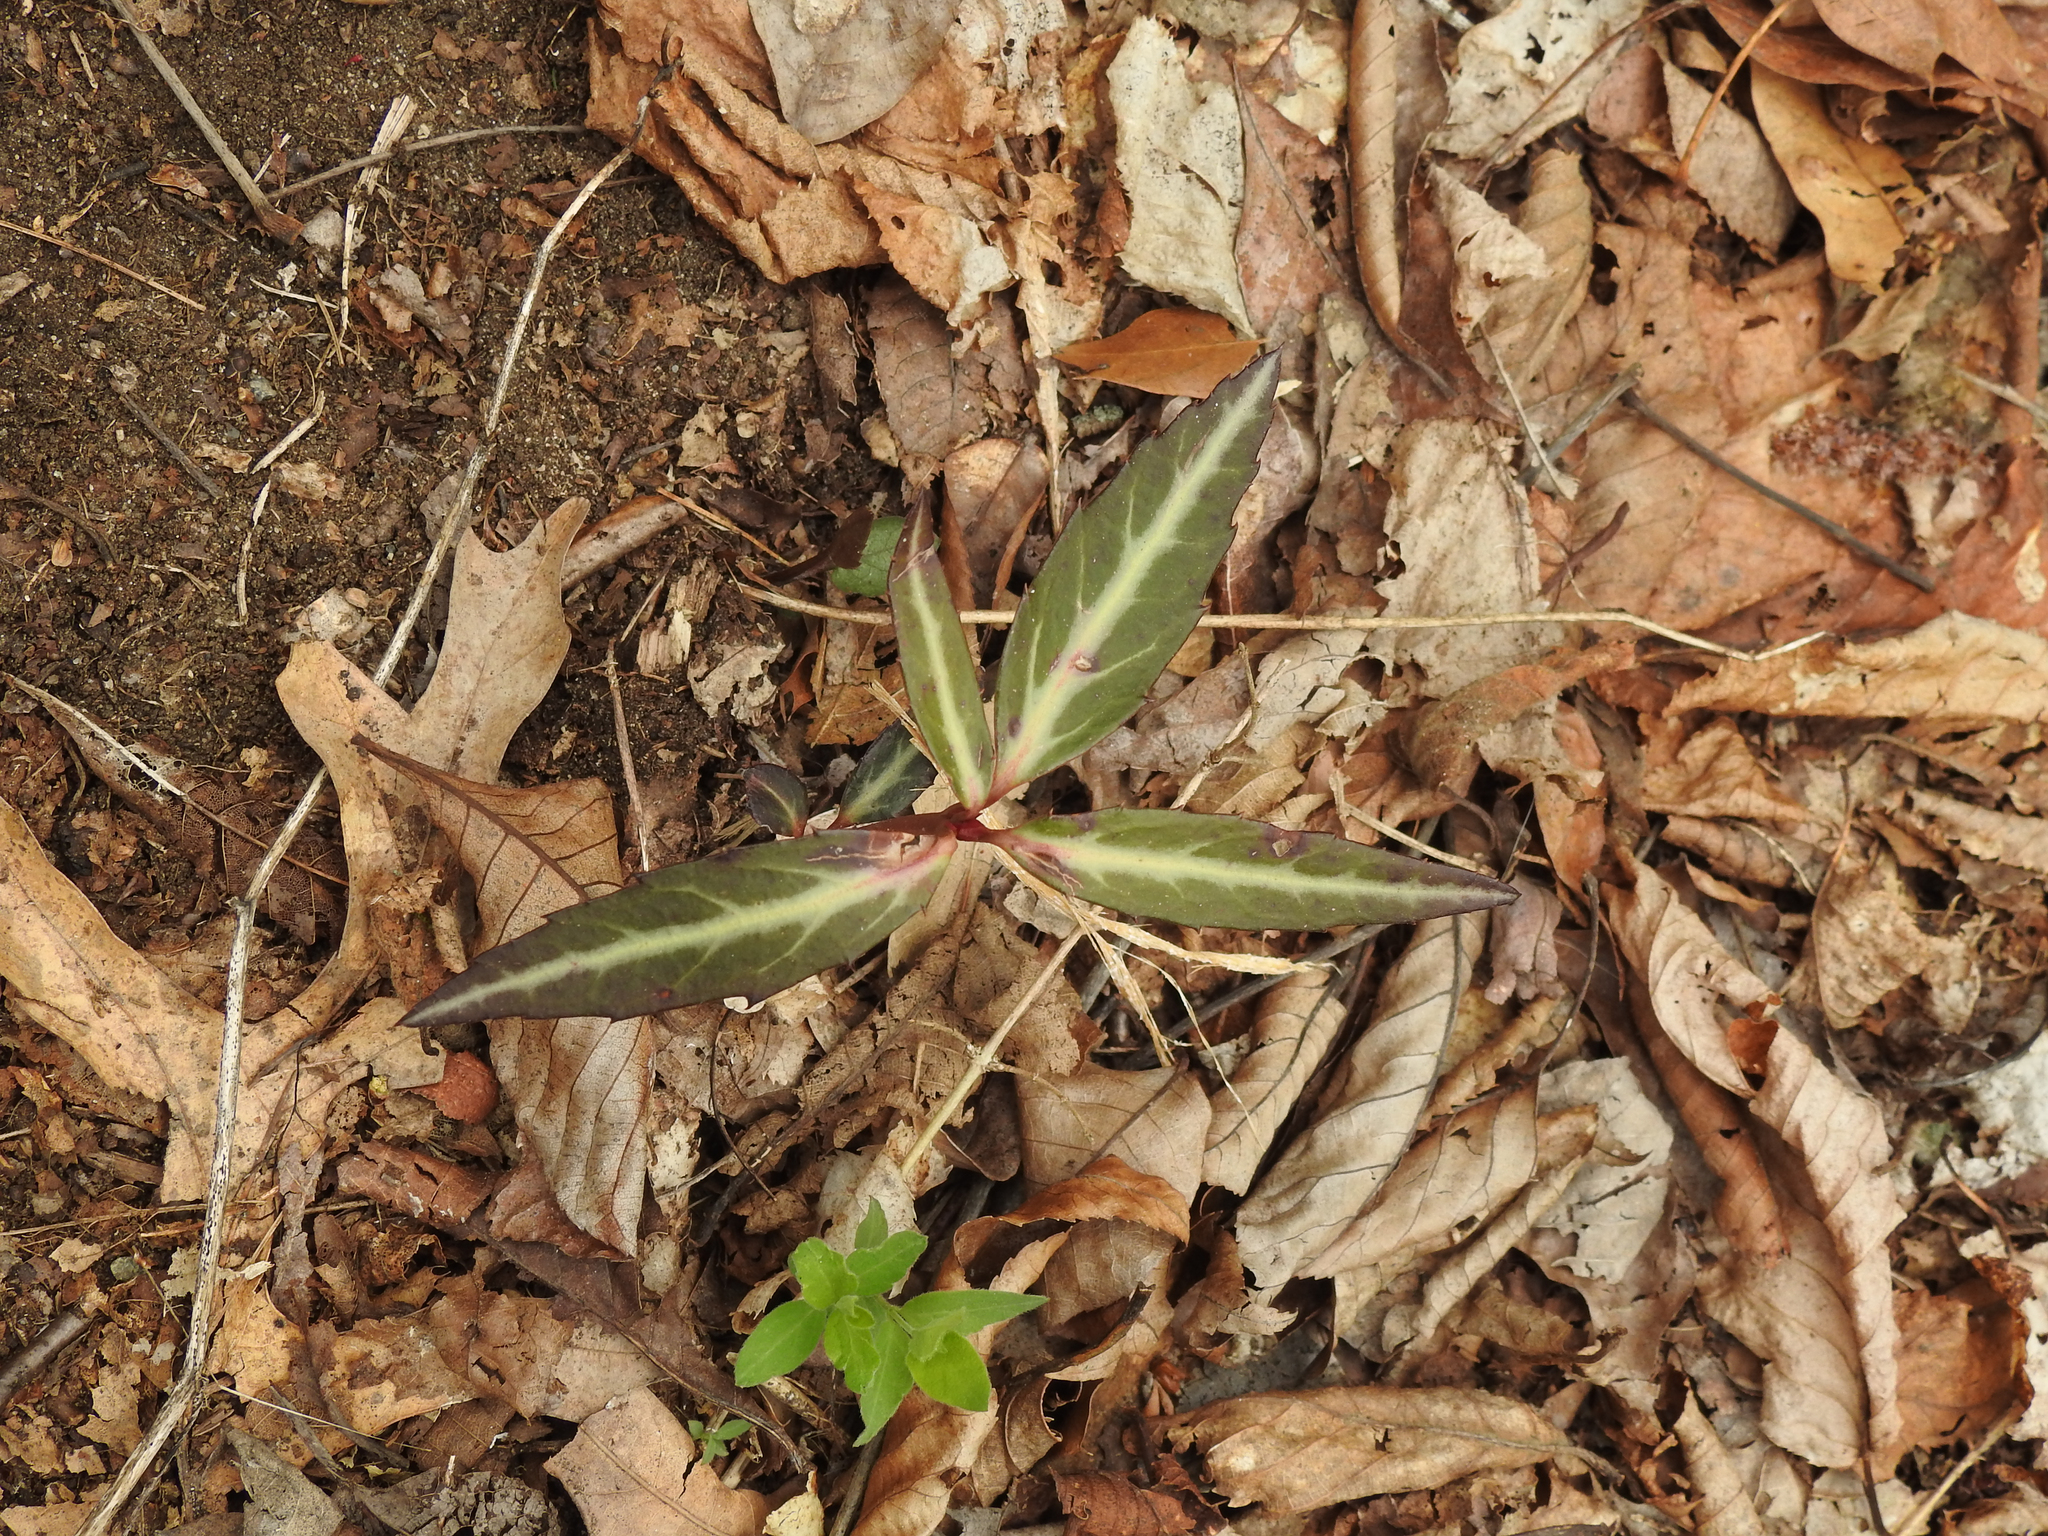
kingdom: Plantae
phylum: Tracheophyta
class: Magnoliopsida
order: Ericales
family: Ericaceae
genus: Chimaphila
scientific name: Chimaphila maculata
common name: Spotted pipsissewa
